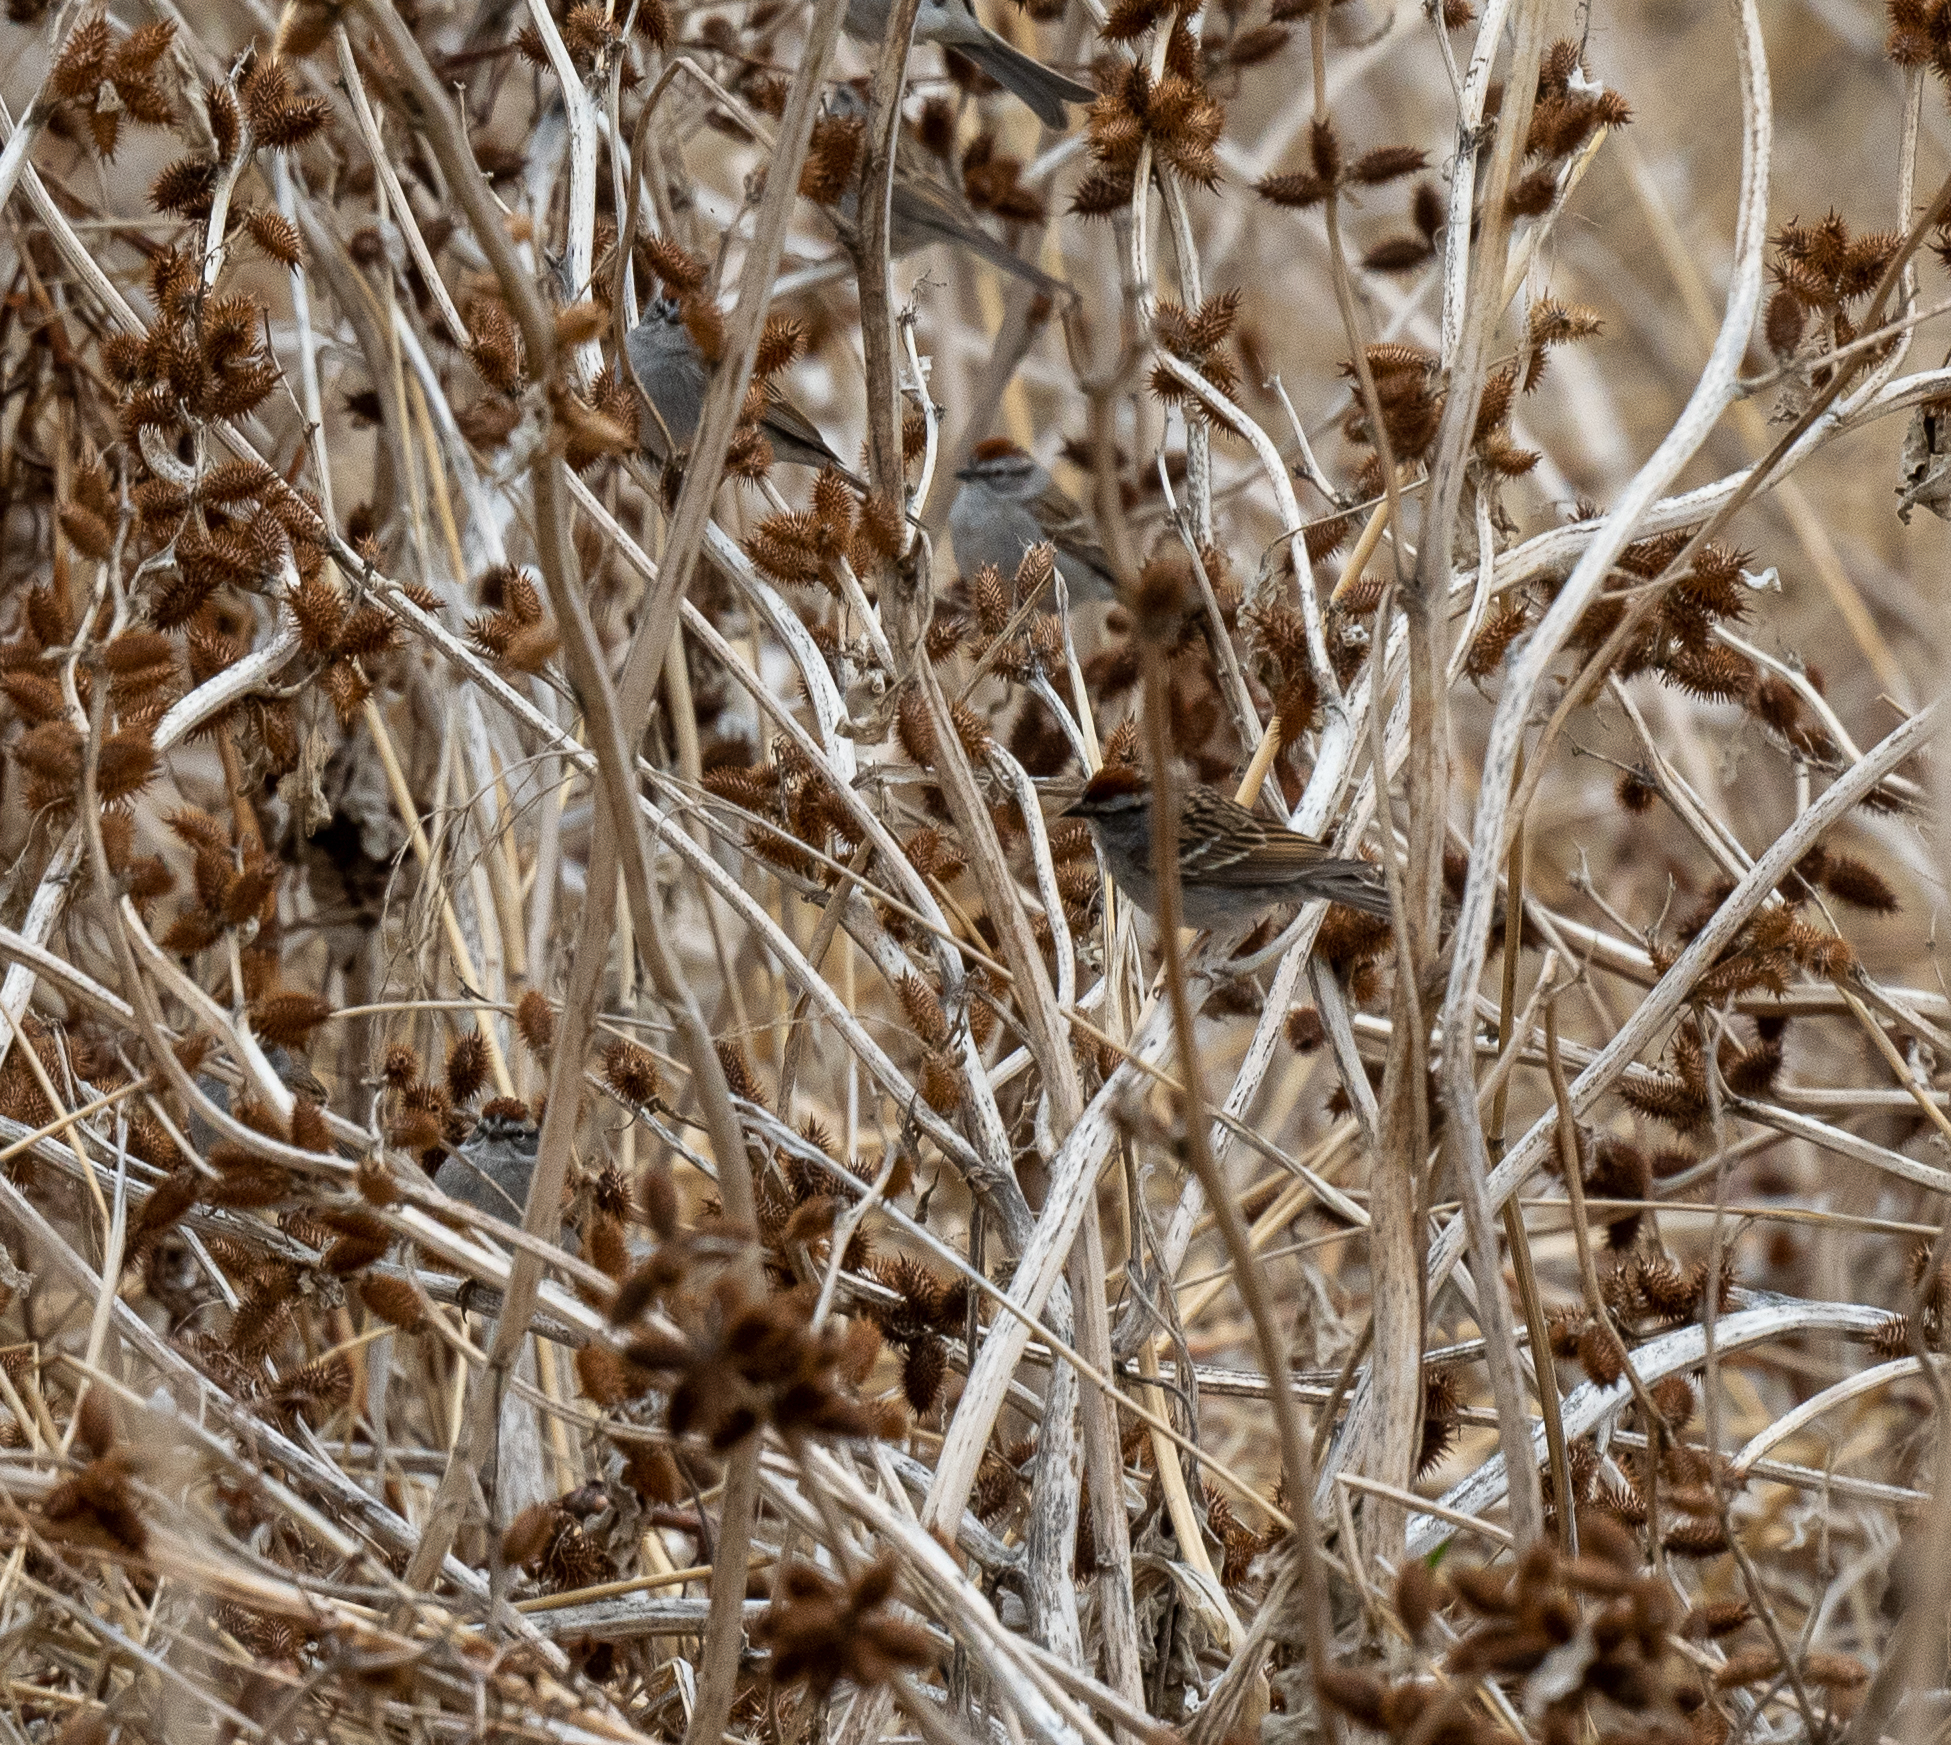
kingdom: Animalia
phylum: Chordata
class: Aves
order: Passeriformes
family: Passerellidae
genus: Spizella
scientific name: Spizella passerina
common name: Chipping sparrow
